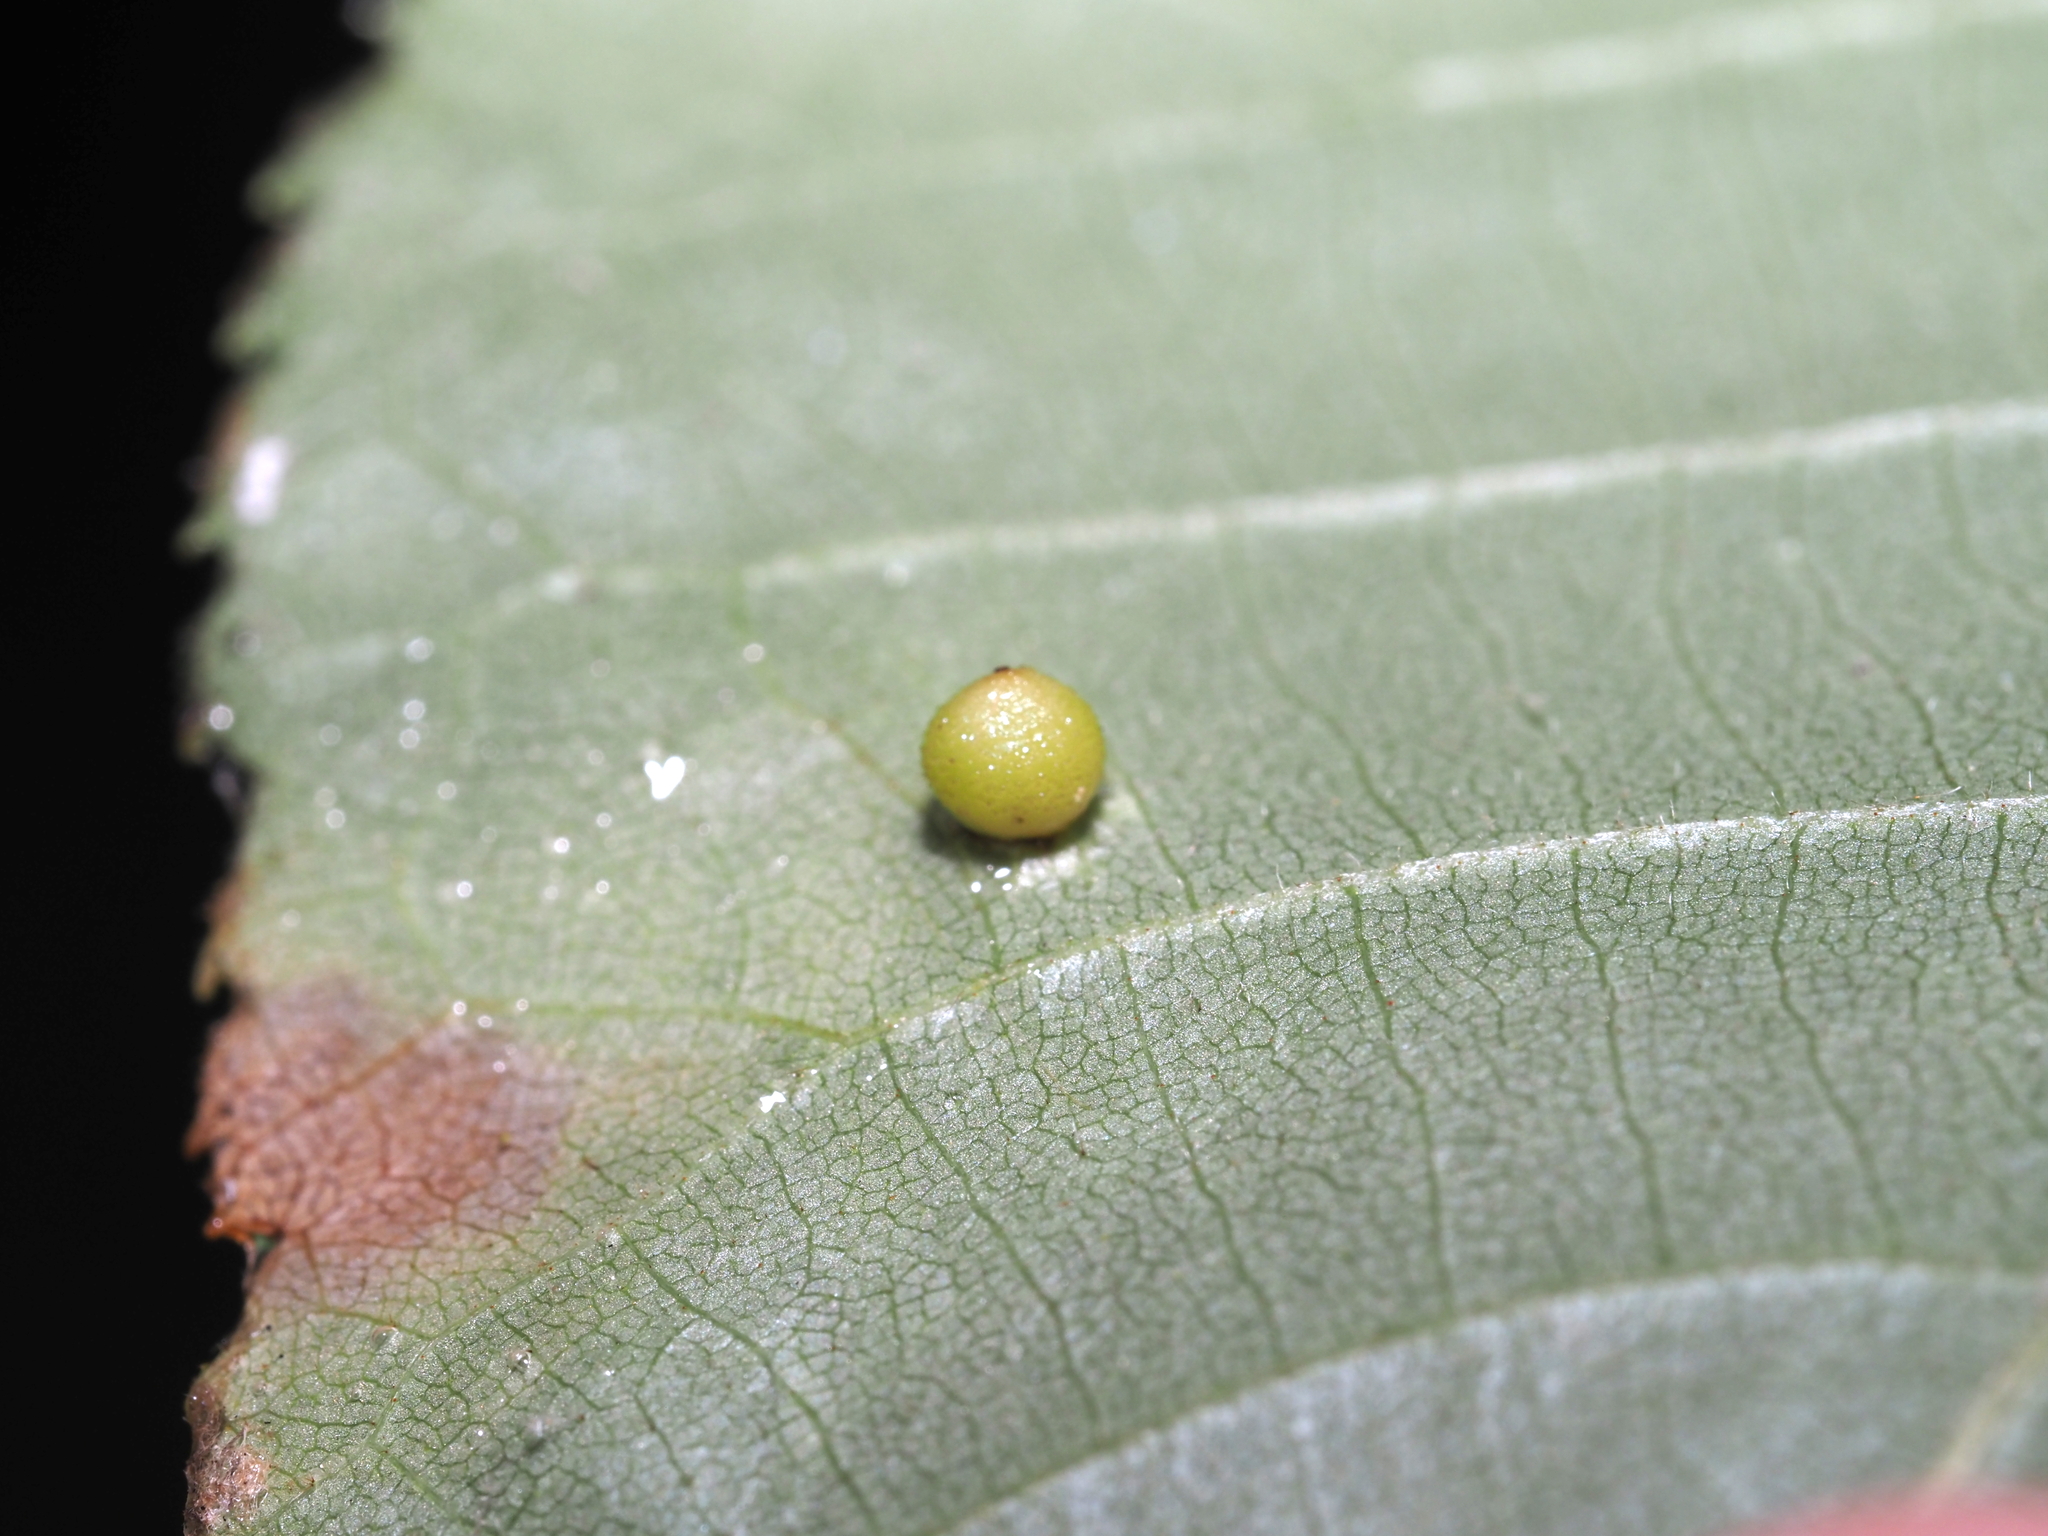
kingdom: Animalia
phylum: Arthropoda
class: Insecta
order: Diptera
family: Cecidomyiidae
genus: Caryomyia
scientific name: Caryomyia caryae
